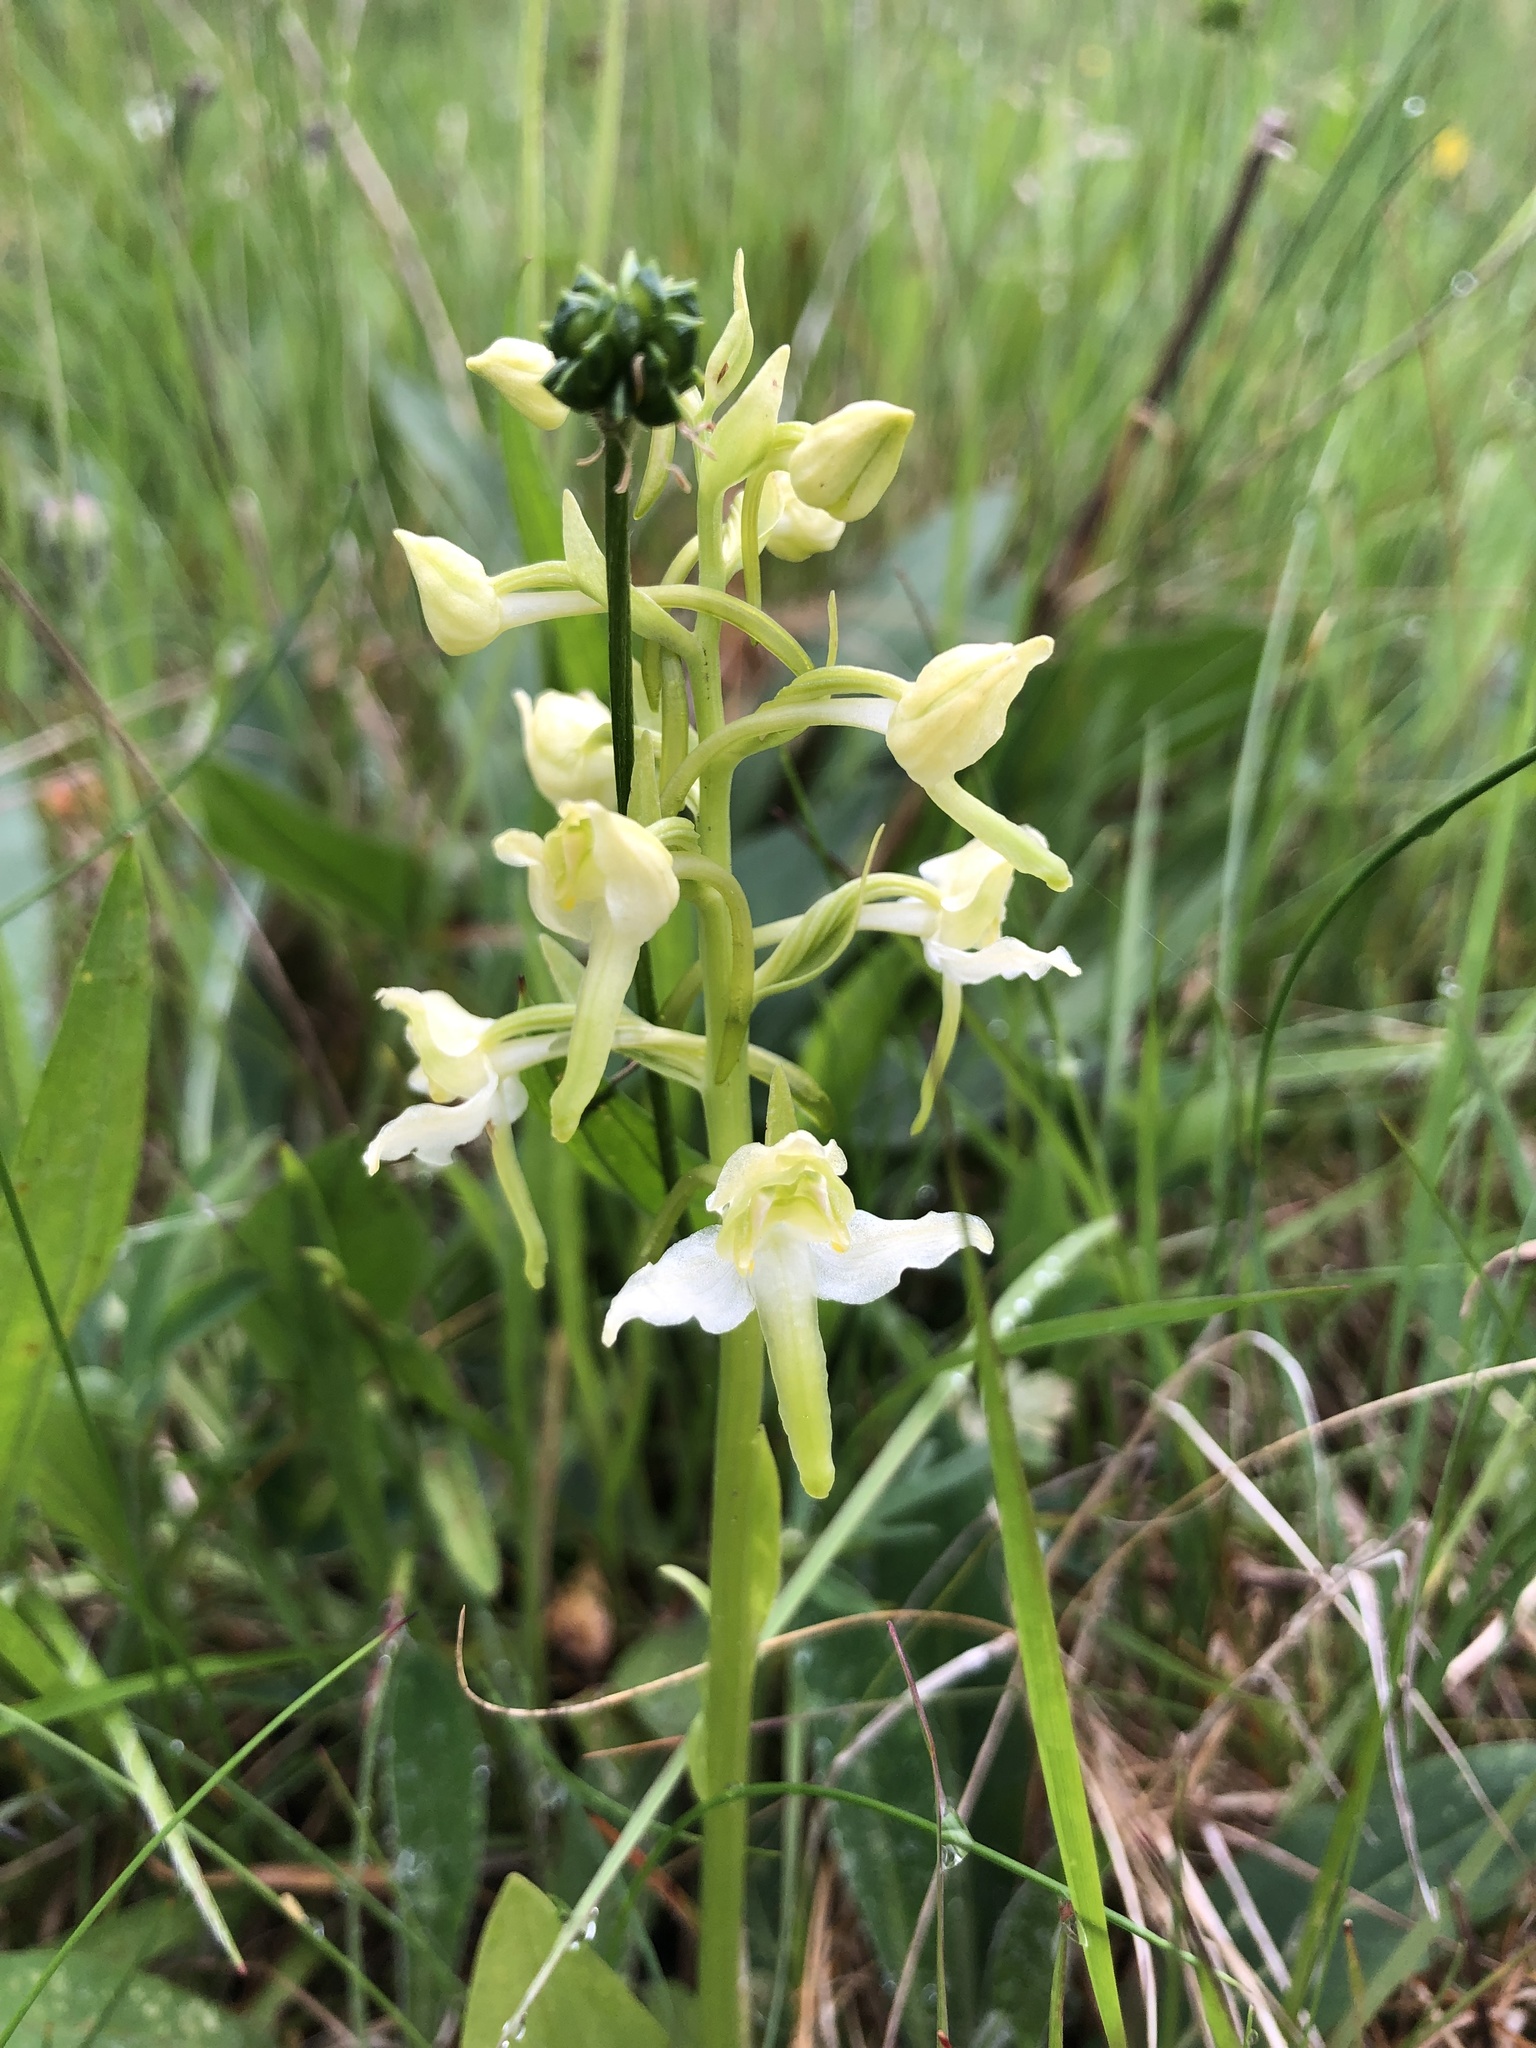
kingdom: Plantae
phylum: Tracheophyta
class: Liliopsida
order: Asparagales
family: Orchidaceae
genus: Platanthera
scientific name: Platanthera chlorantha
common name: Greater butterfly-orchid
